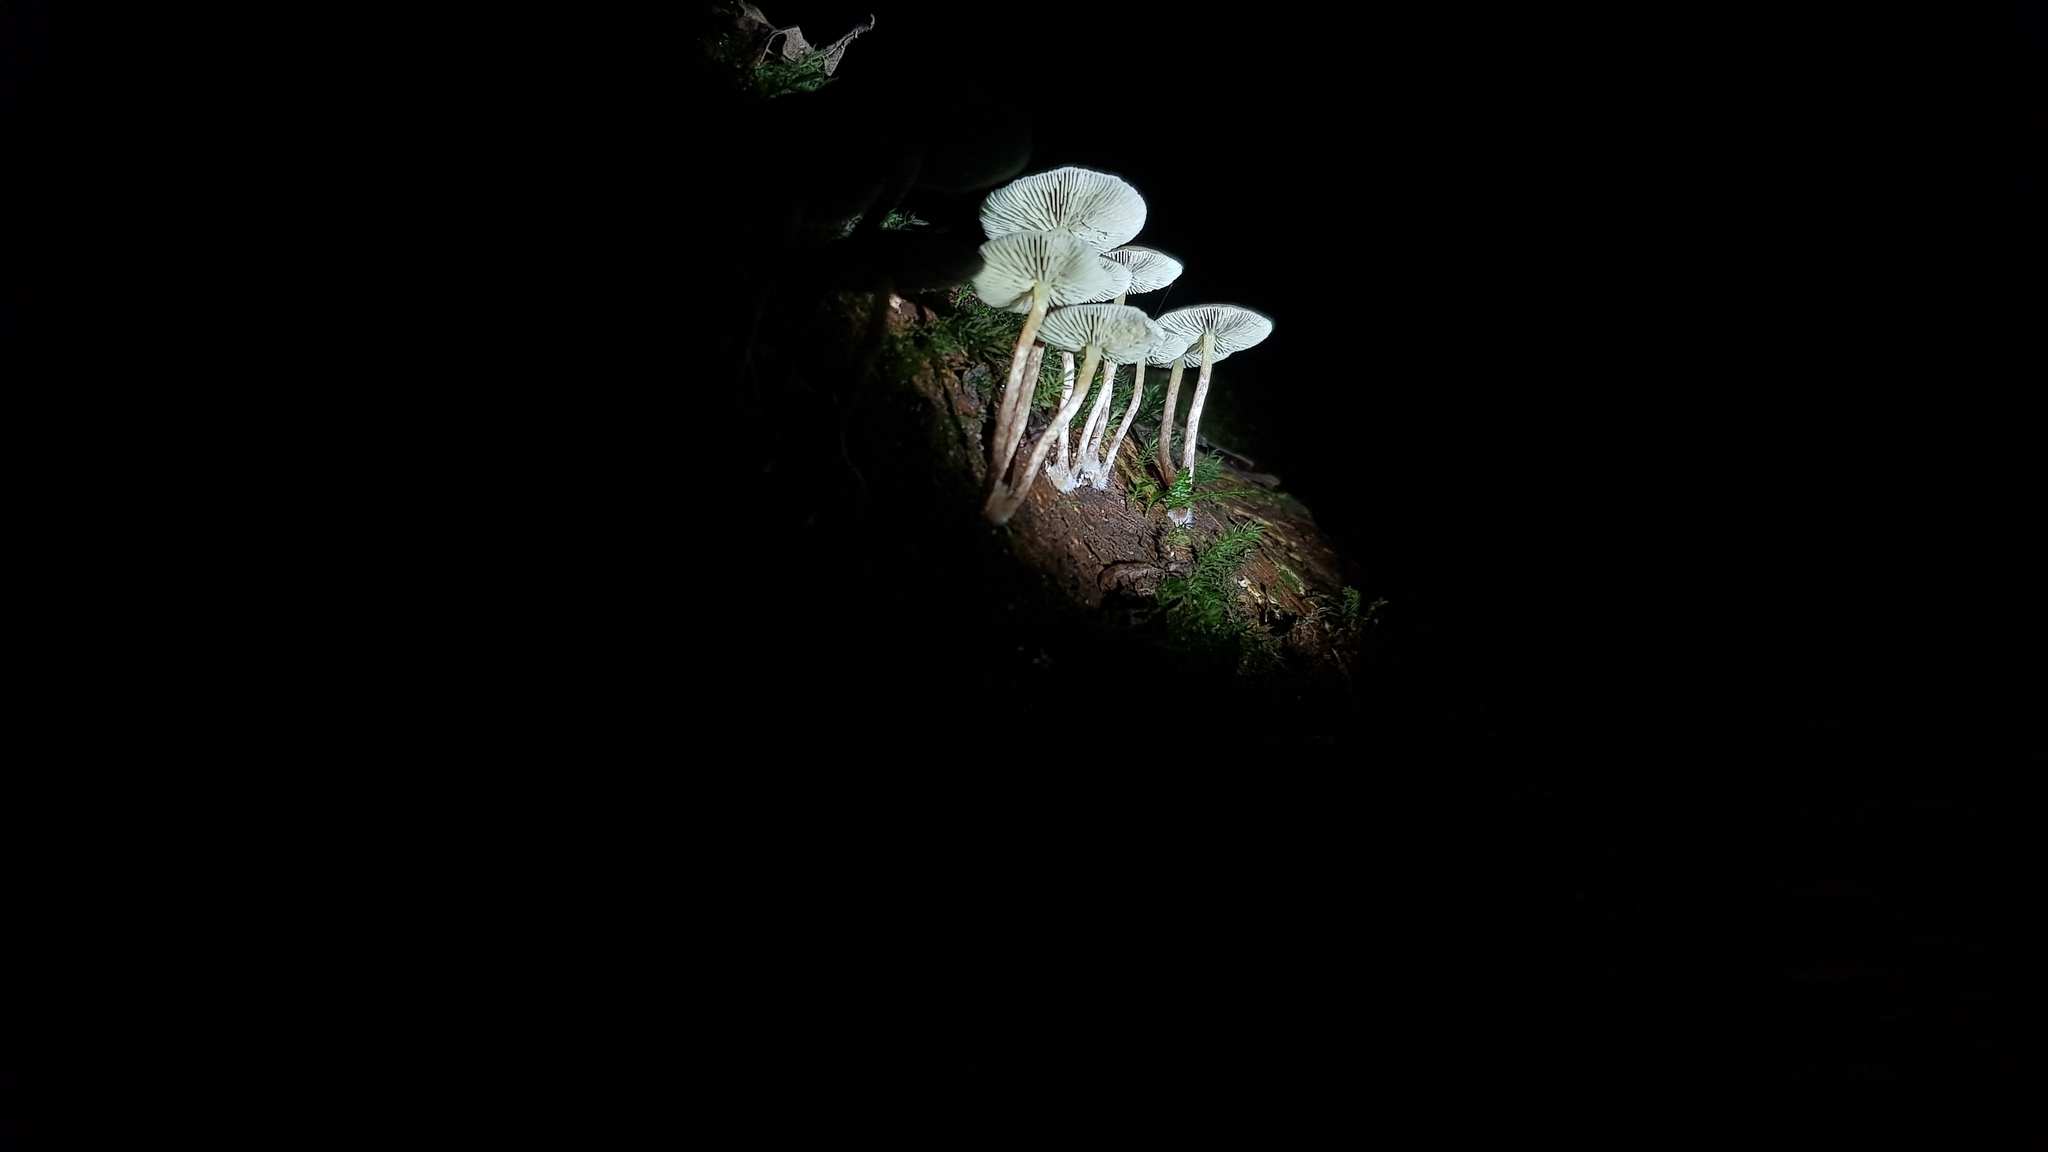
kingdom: Fungi
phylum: Basidiomycota
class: Agaricomycetes
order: Agaricales
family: Strophariaceae
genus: Hypholoma
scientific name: Hypholoma fasciculare
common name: Sulphur tuft
